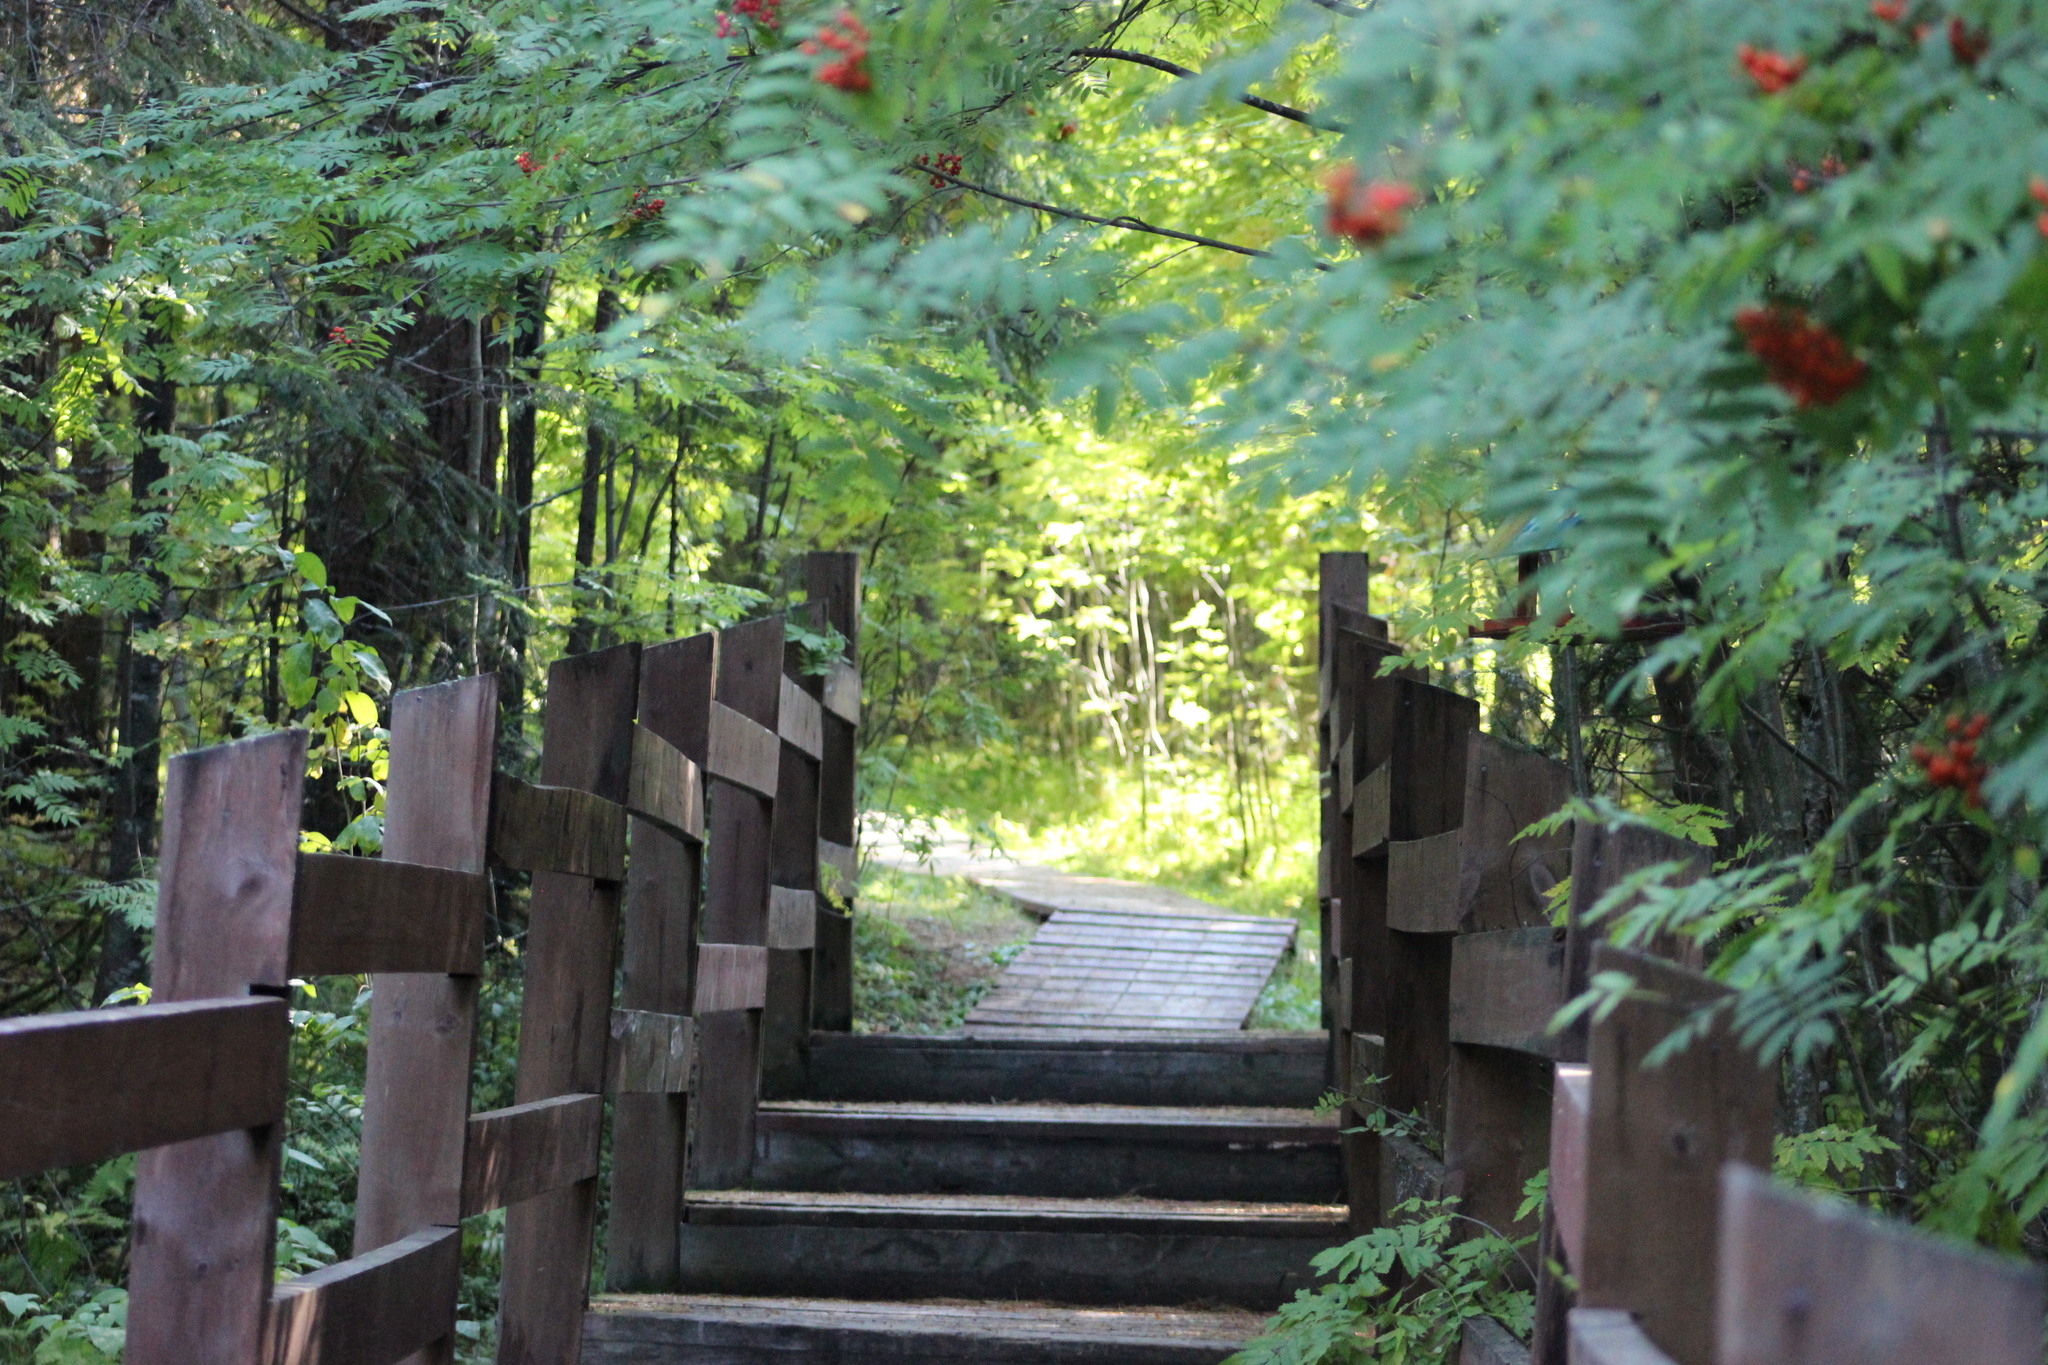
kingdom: Plantae
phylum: Tracheophyta
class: Magnoliopsida
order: Rosales
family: Rosaceae
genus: Sorbus
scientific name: Sorbus aucuparia
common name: Rowan
